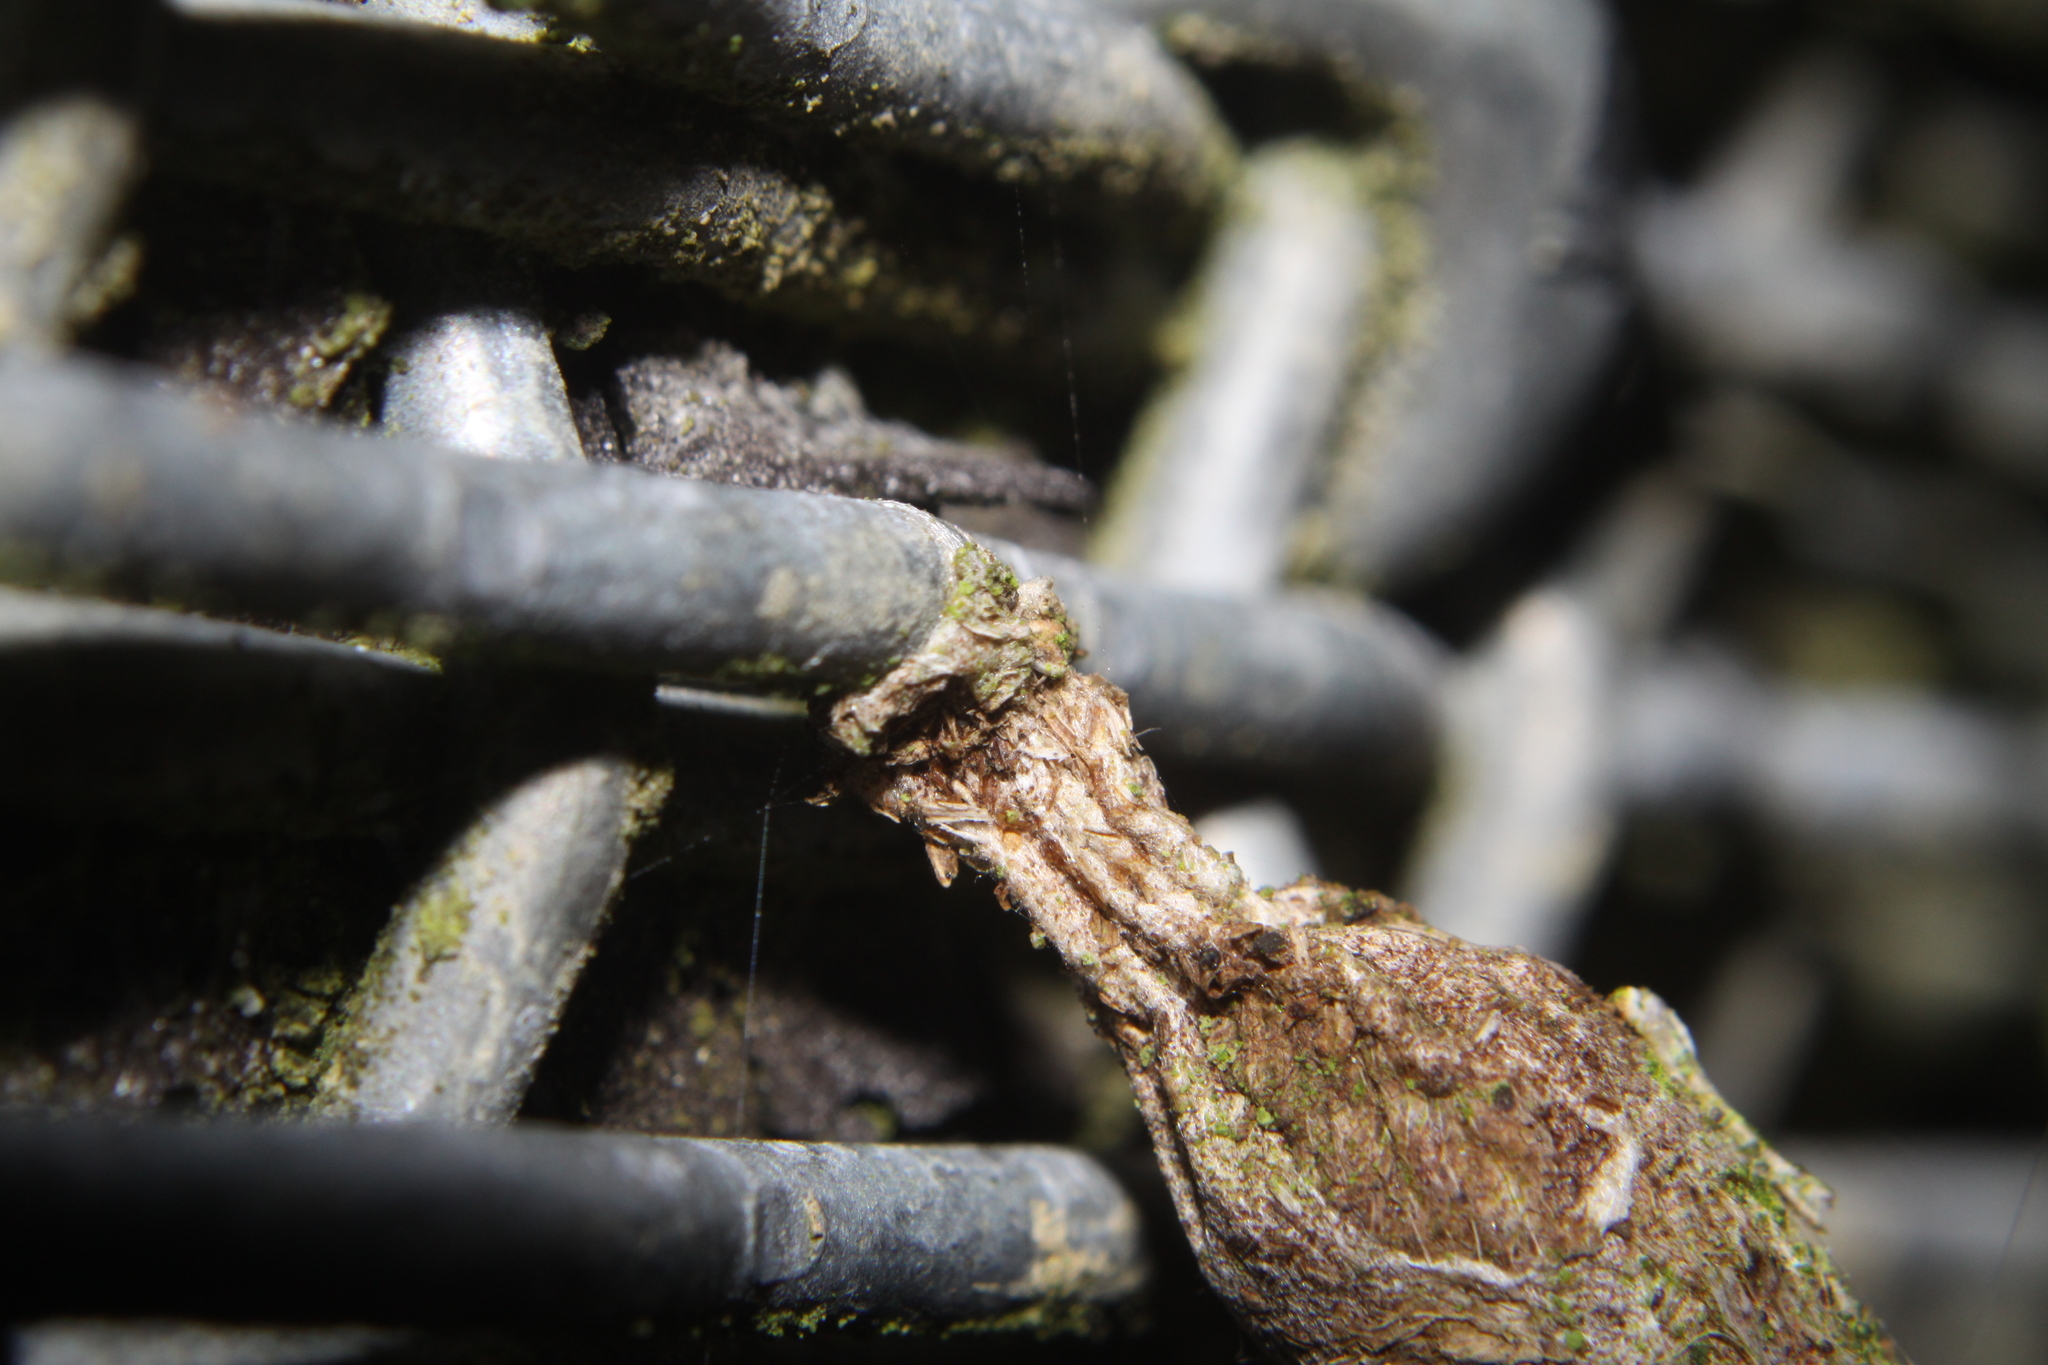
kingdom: Animalia
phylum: Arthropoda
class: Insecta
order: Lepidoptera
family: Psychidae
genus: Liothula
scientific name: Liothula omnivora
